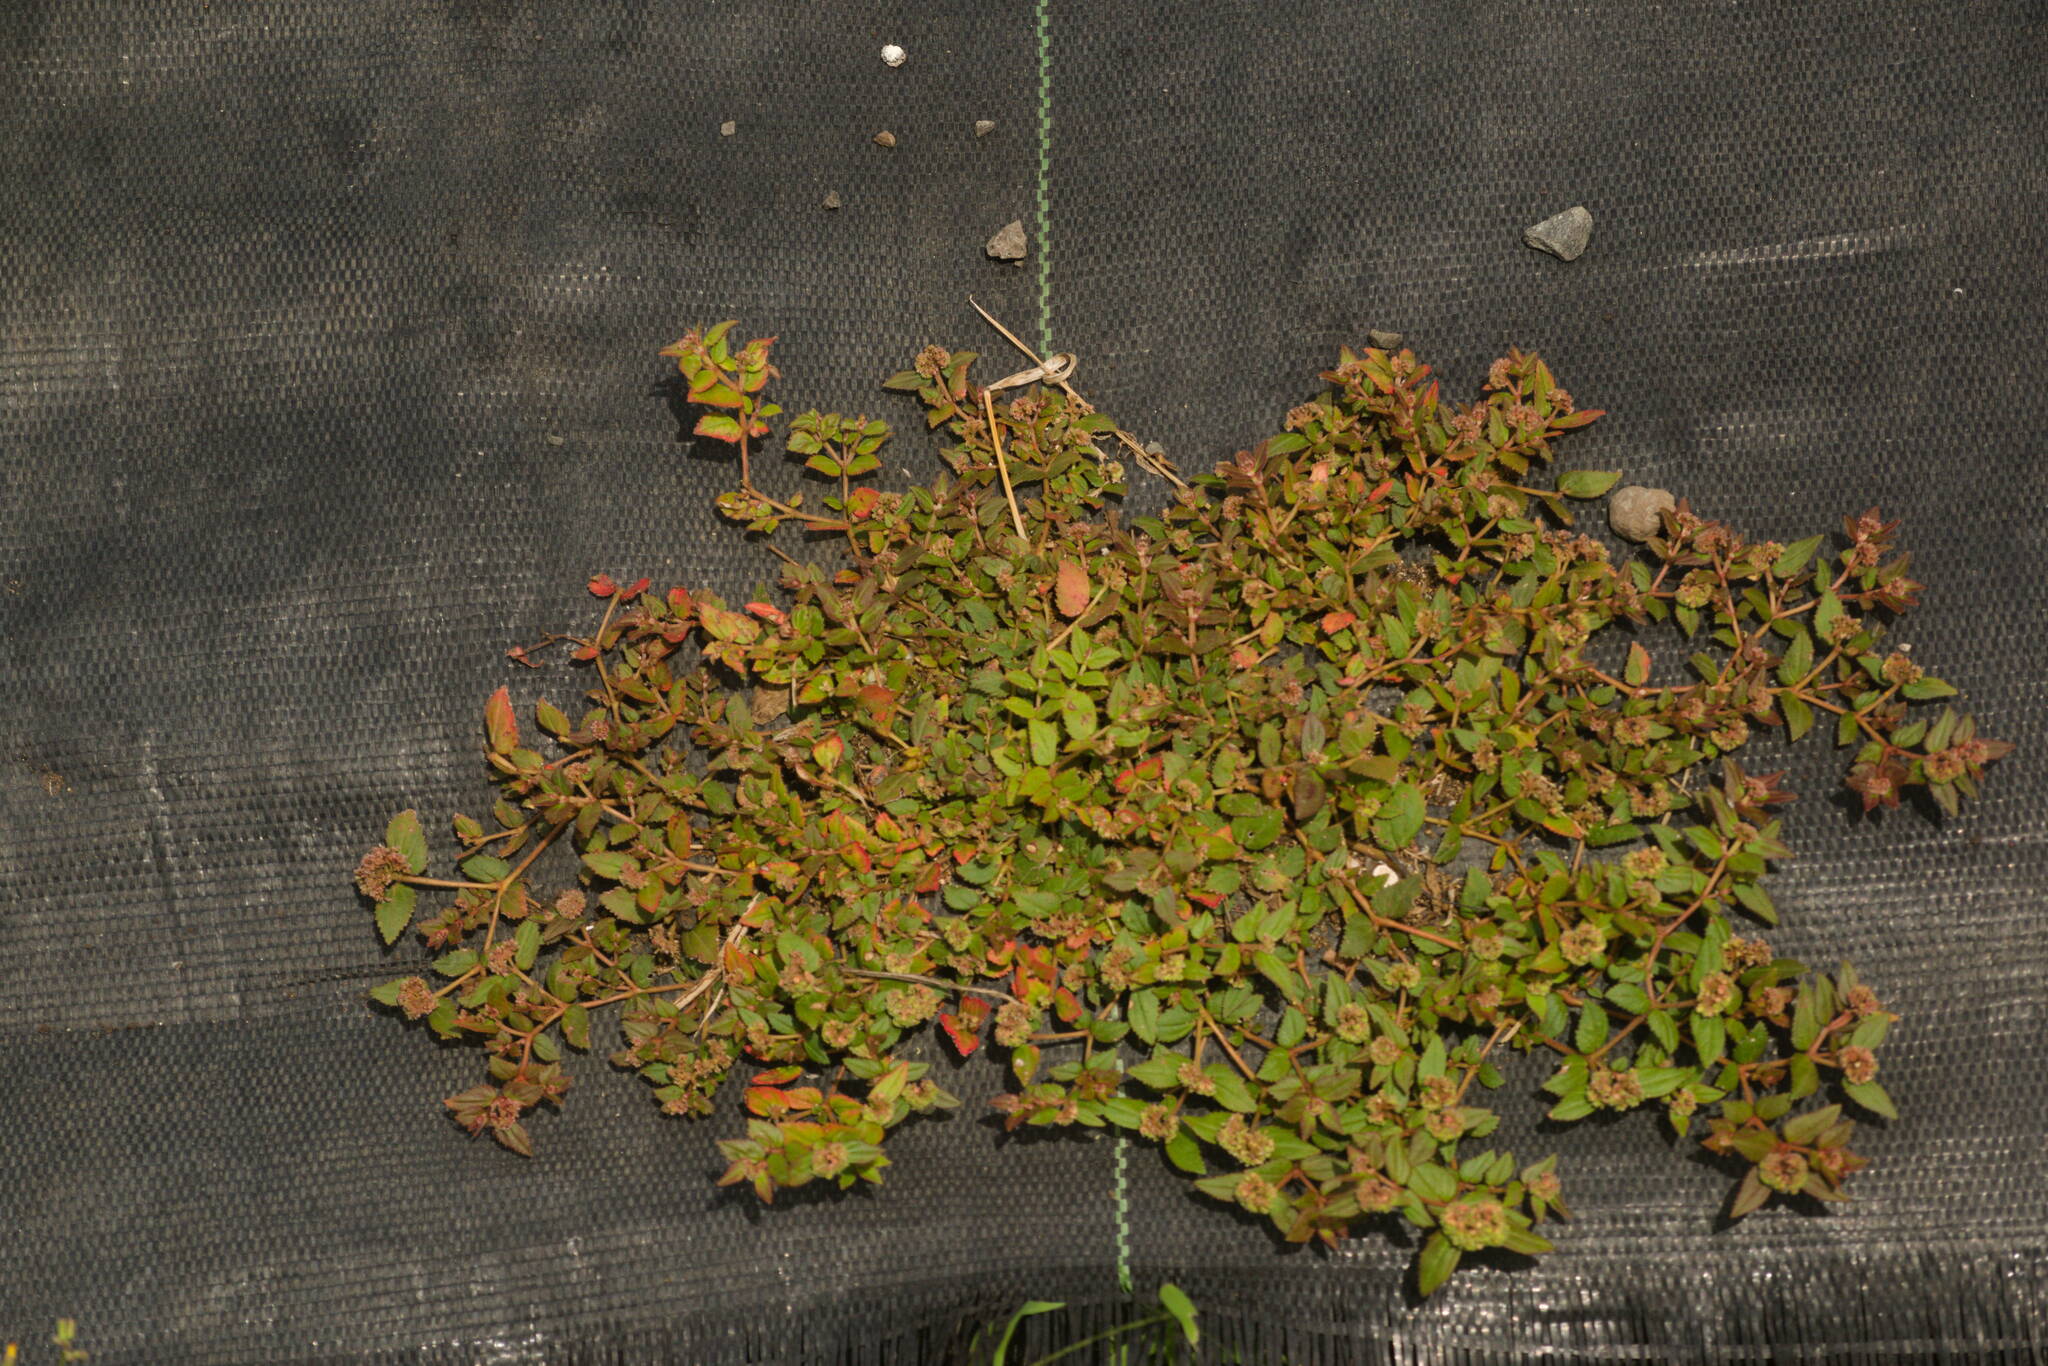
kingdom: Plantae
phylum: Tracheophyta
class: Magnoliopsida
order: Malpighiales
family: Euphorbiaceae
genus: Euphorbia
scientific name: Euphorbia ophthalmica
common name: Florida hammock sandmat
